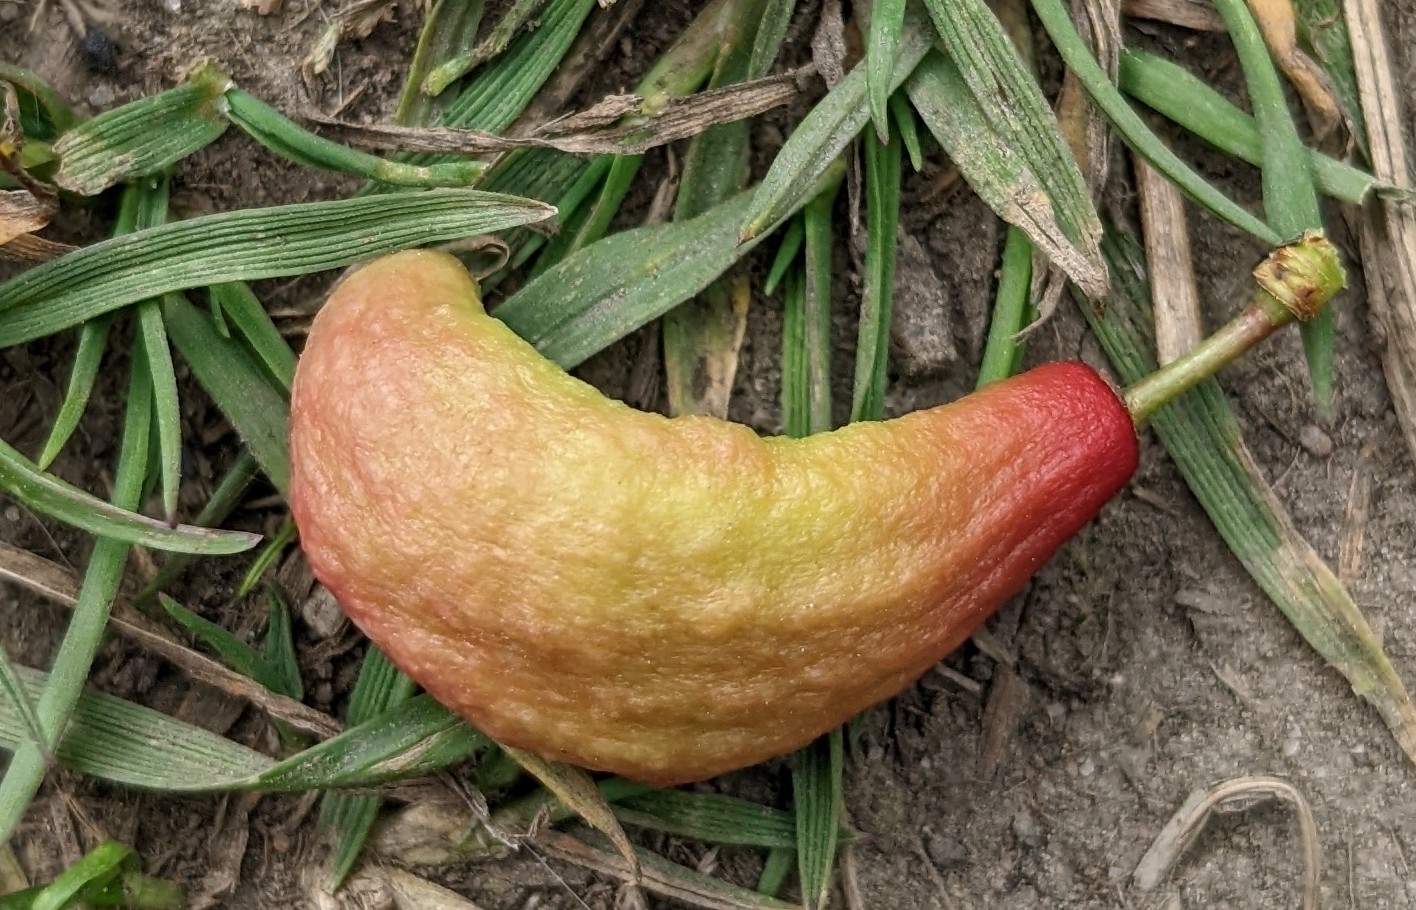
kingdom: Fungi
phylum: Ascomycota
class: Taphrinomycetes
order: Taphrinales
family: Taphrinaceae
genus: Taphrina
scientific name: Taphrina pruni
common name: Pocket plum
